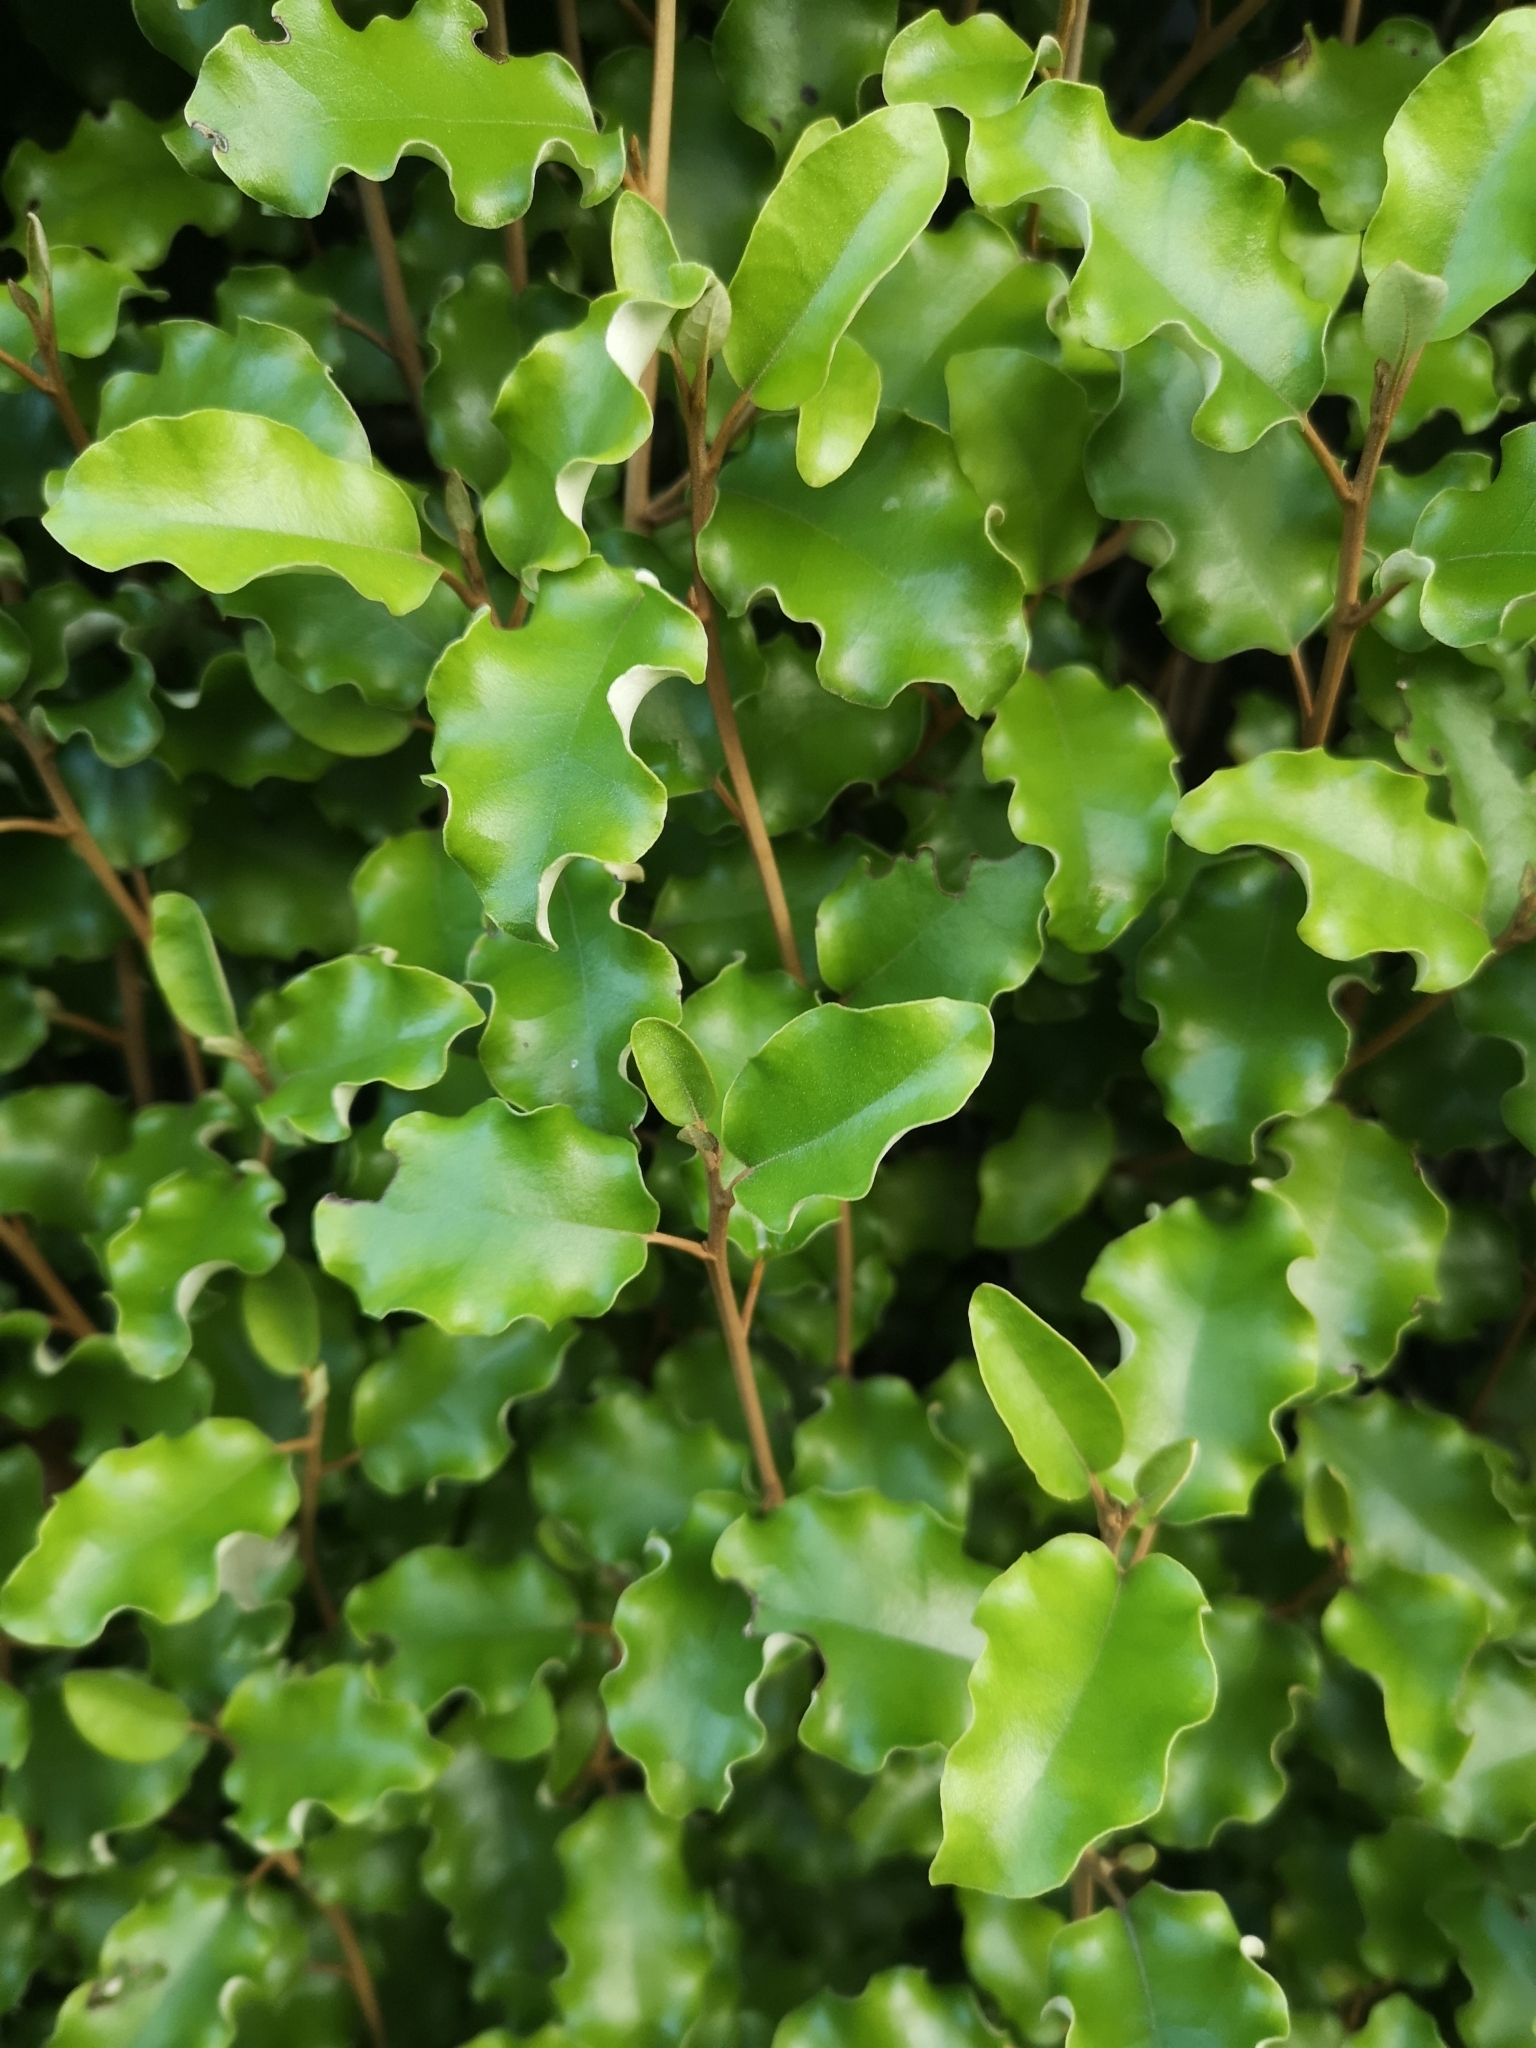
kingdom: Plantae
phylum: Tracheophyta
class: Magnoliopsida
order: Asterales
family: Asteraceae
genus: Olearia
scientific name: Olearia paniculata
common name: Akiraho
